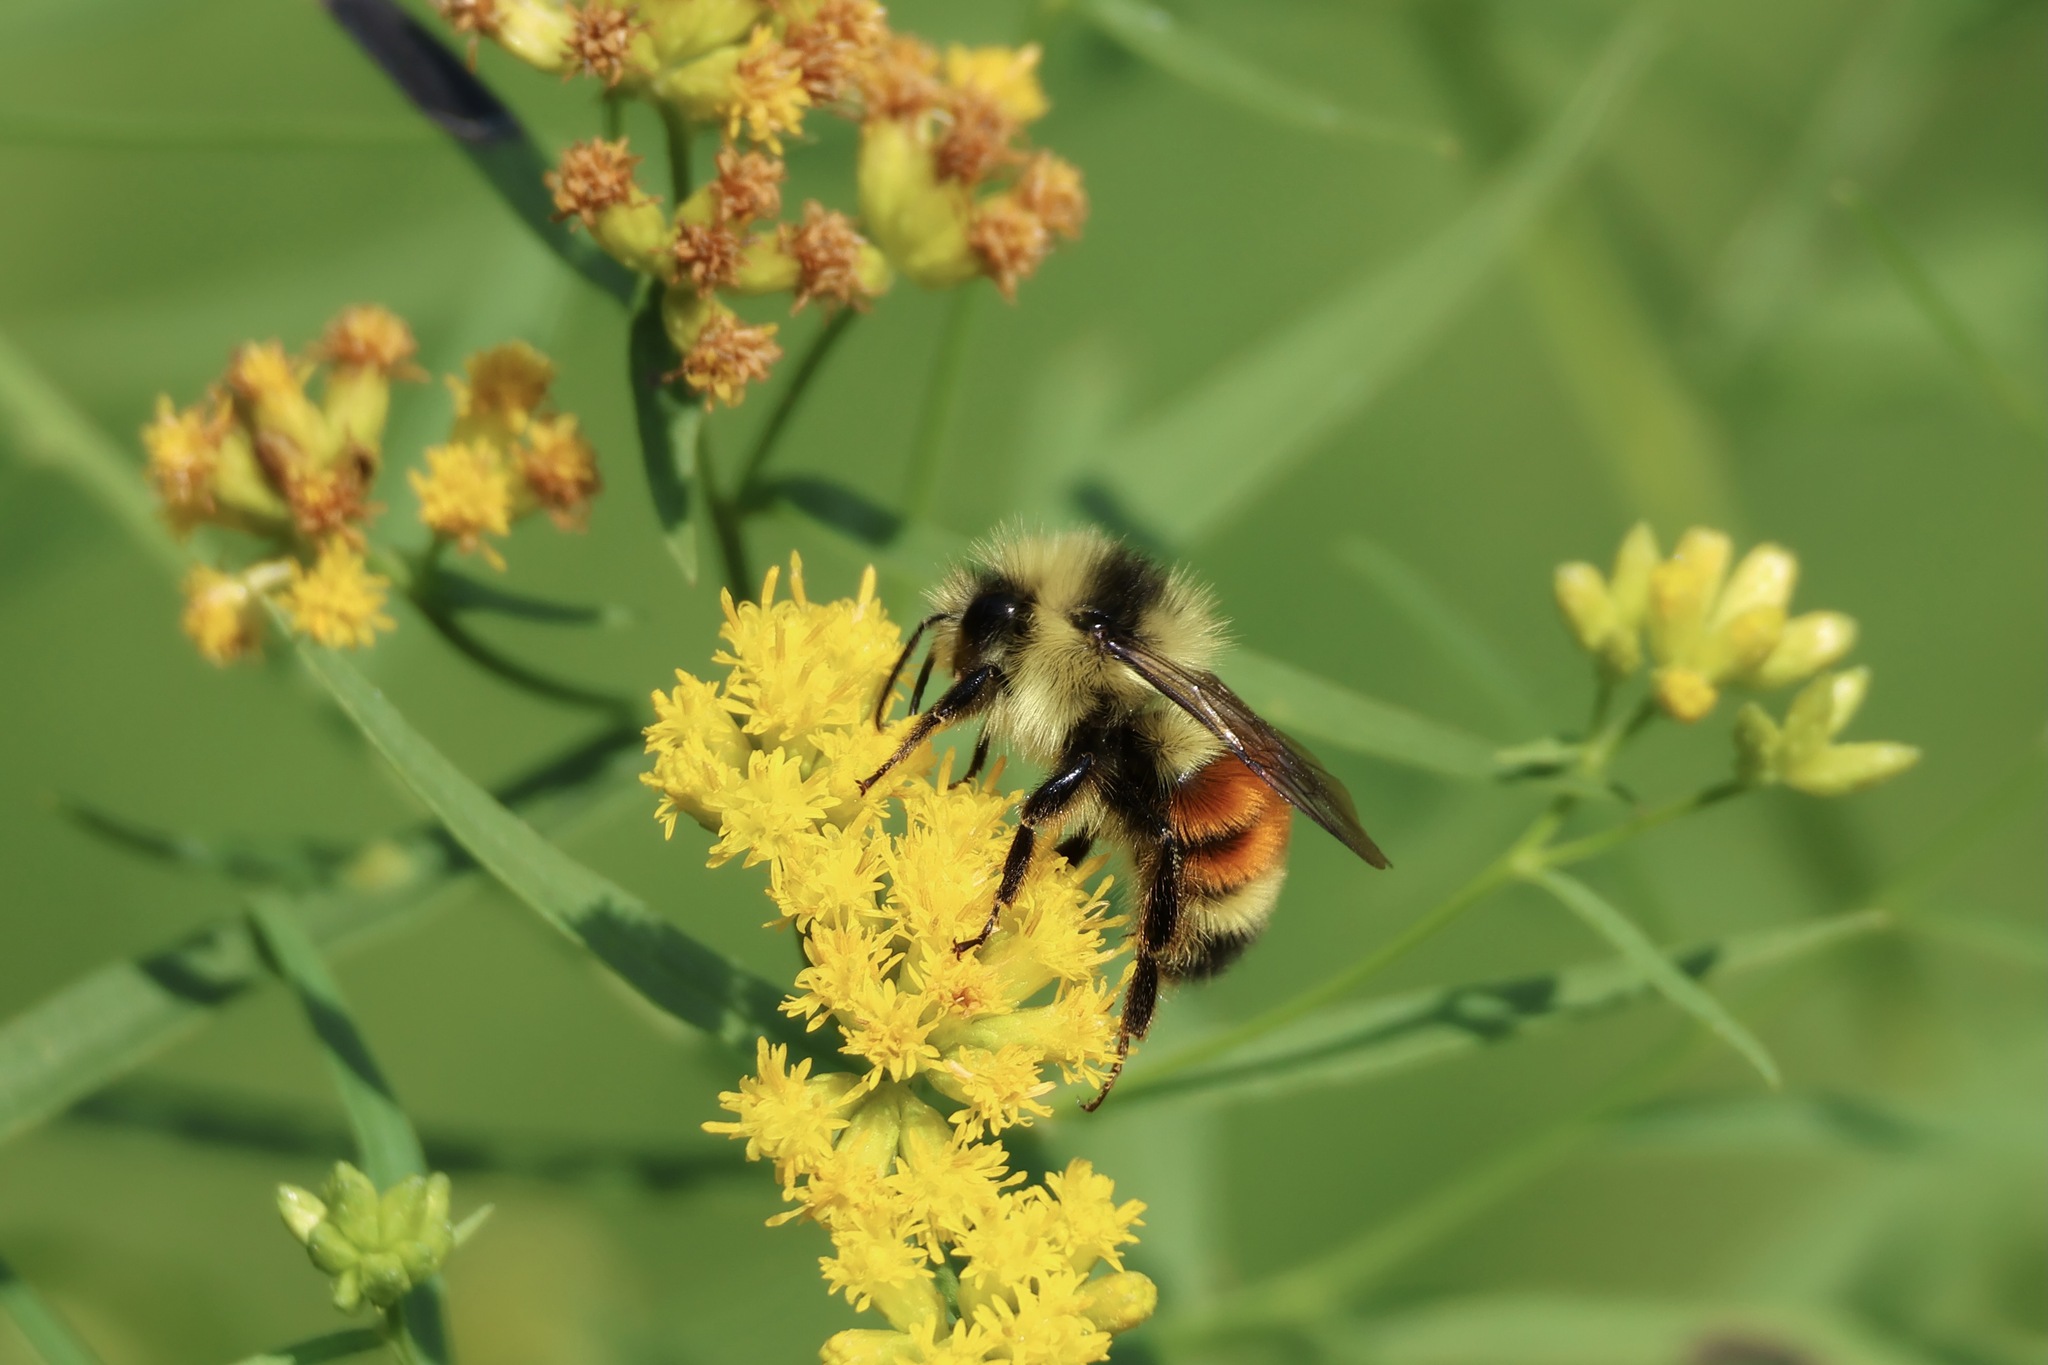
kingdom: Animalia
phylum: Arthropoda
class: Insecta
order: Hymenoptera
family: Apidae
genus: Bombus
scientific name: Bombus ternarius
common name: Tri-colored bumble bee
